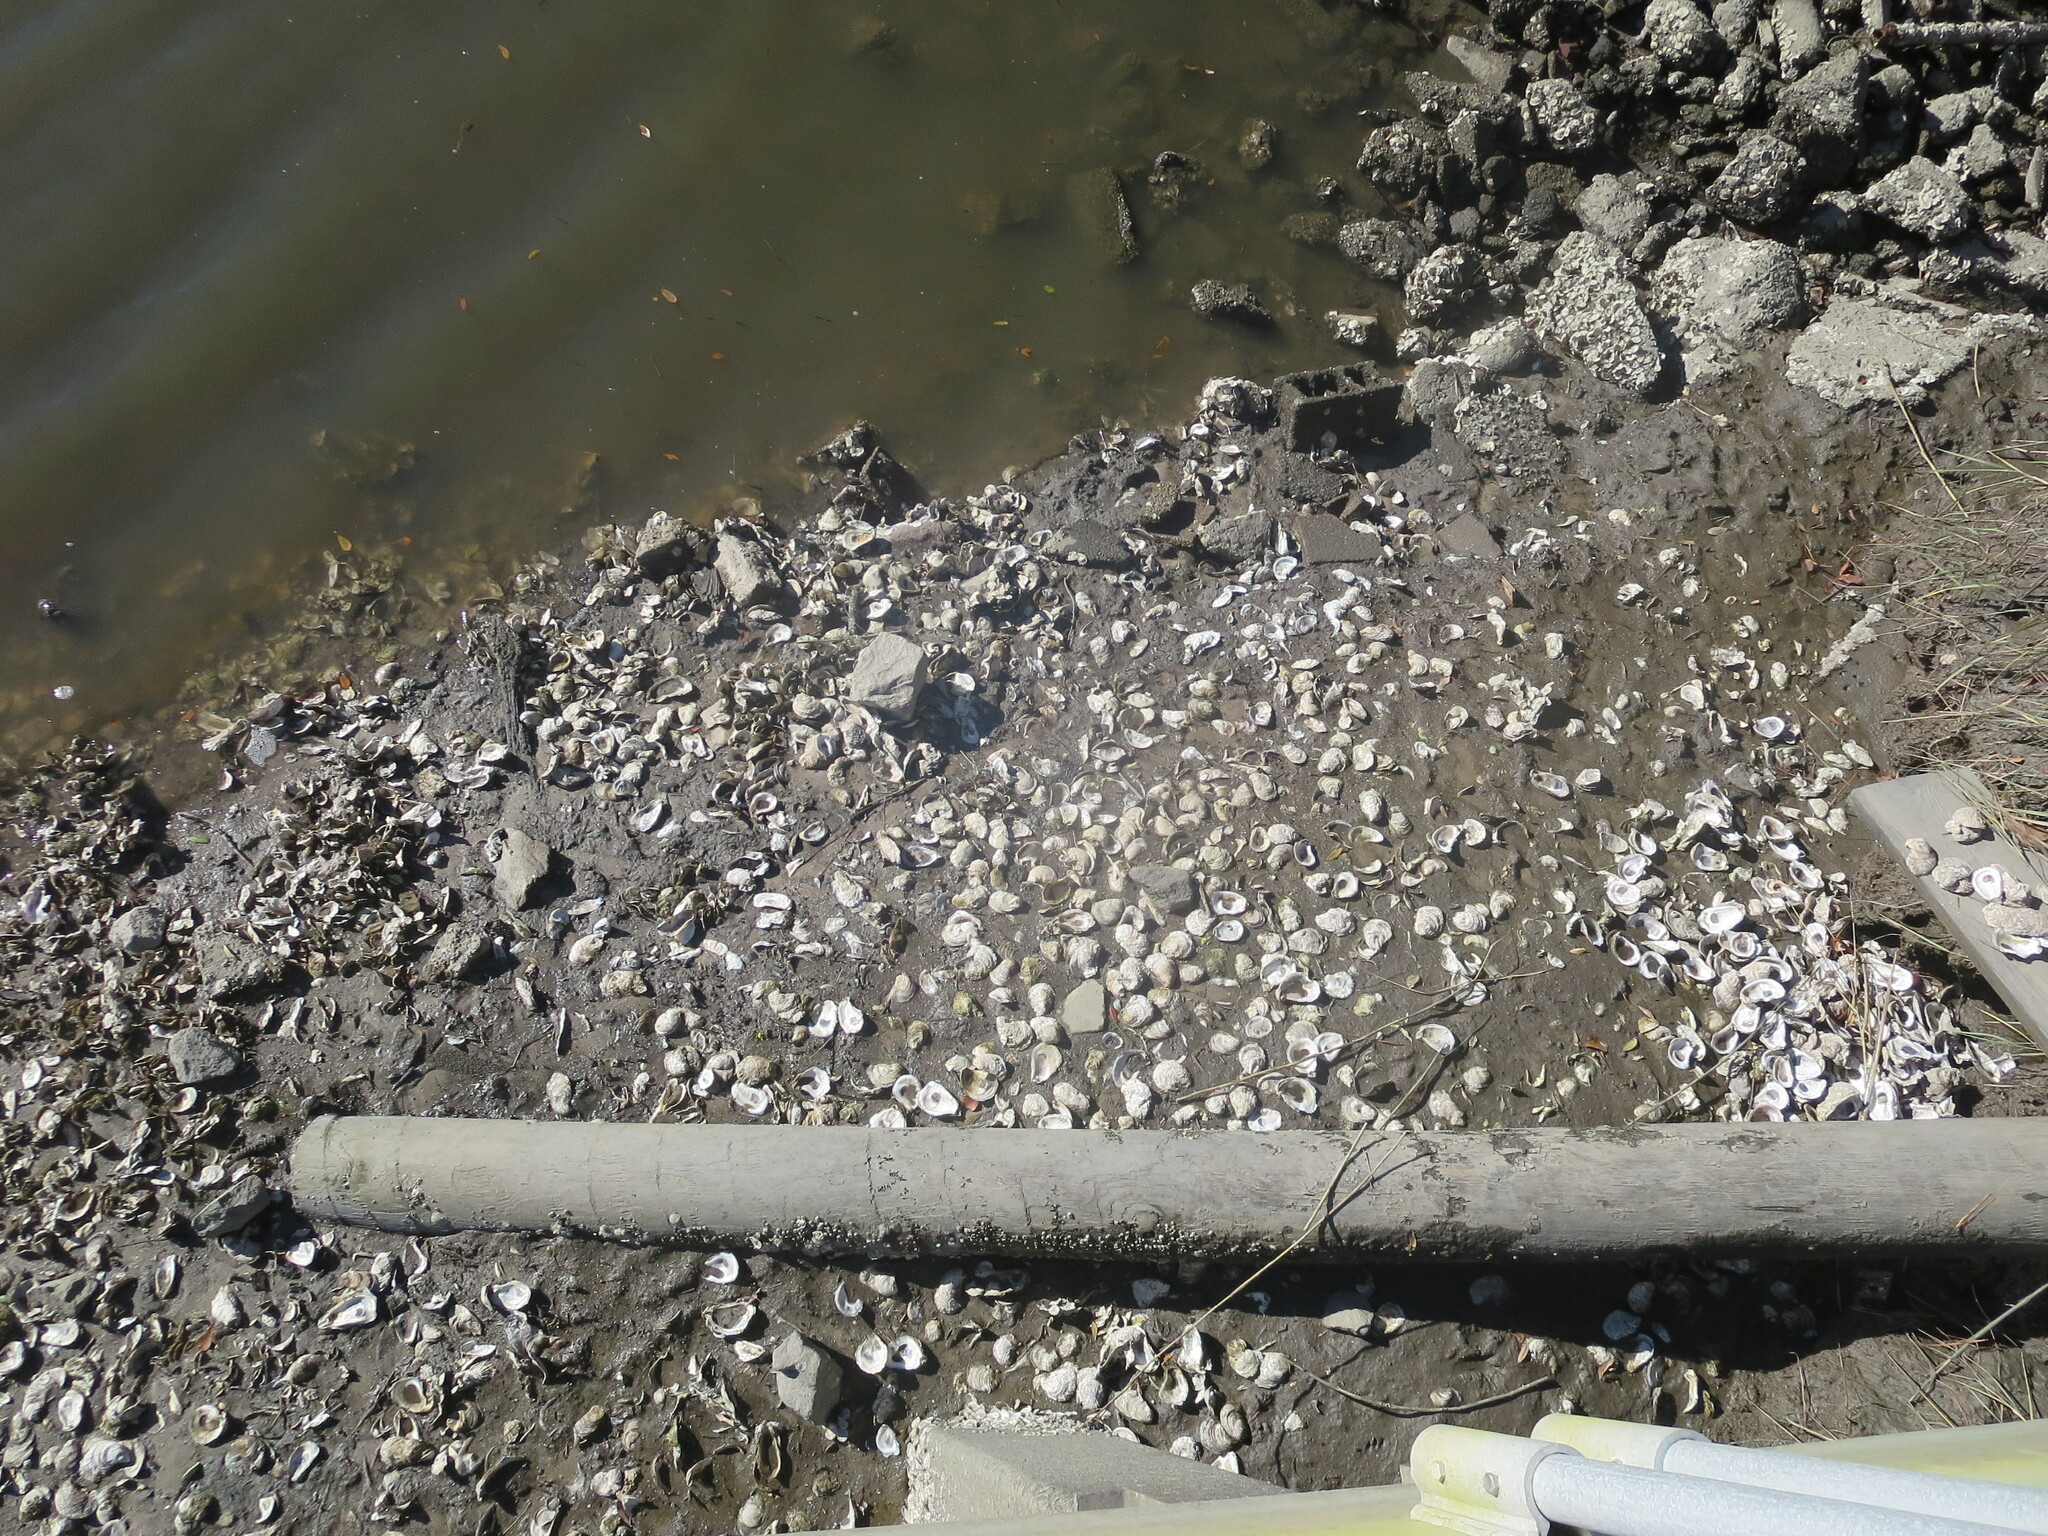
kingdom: Animalia
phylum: Mollusca
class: Bivalvia
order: Ostreida
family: Ostreidae
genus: Crassostrea
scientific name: Crassostrea virginica
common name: American oyster
